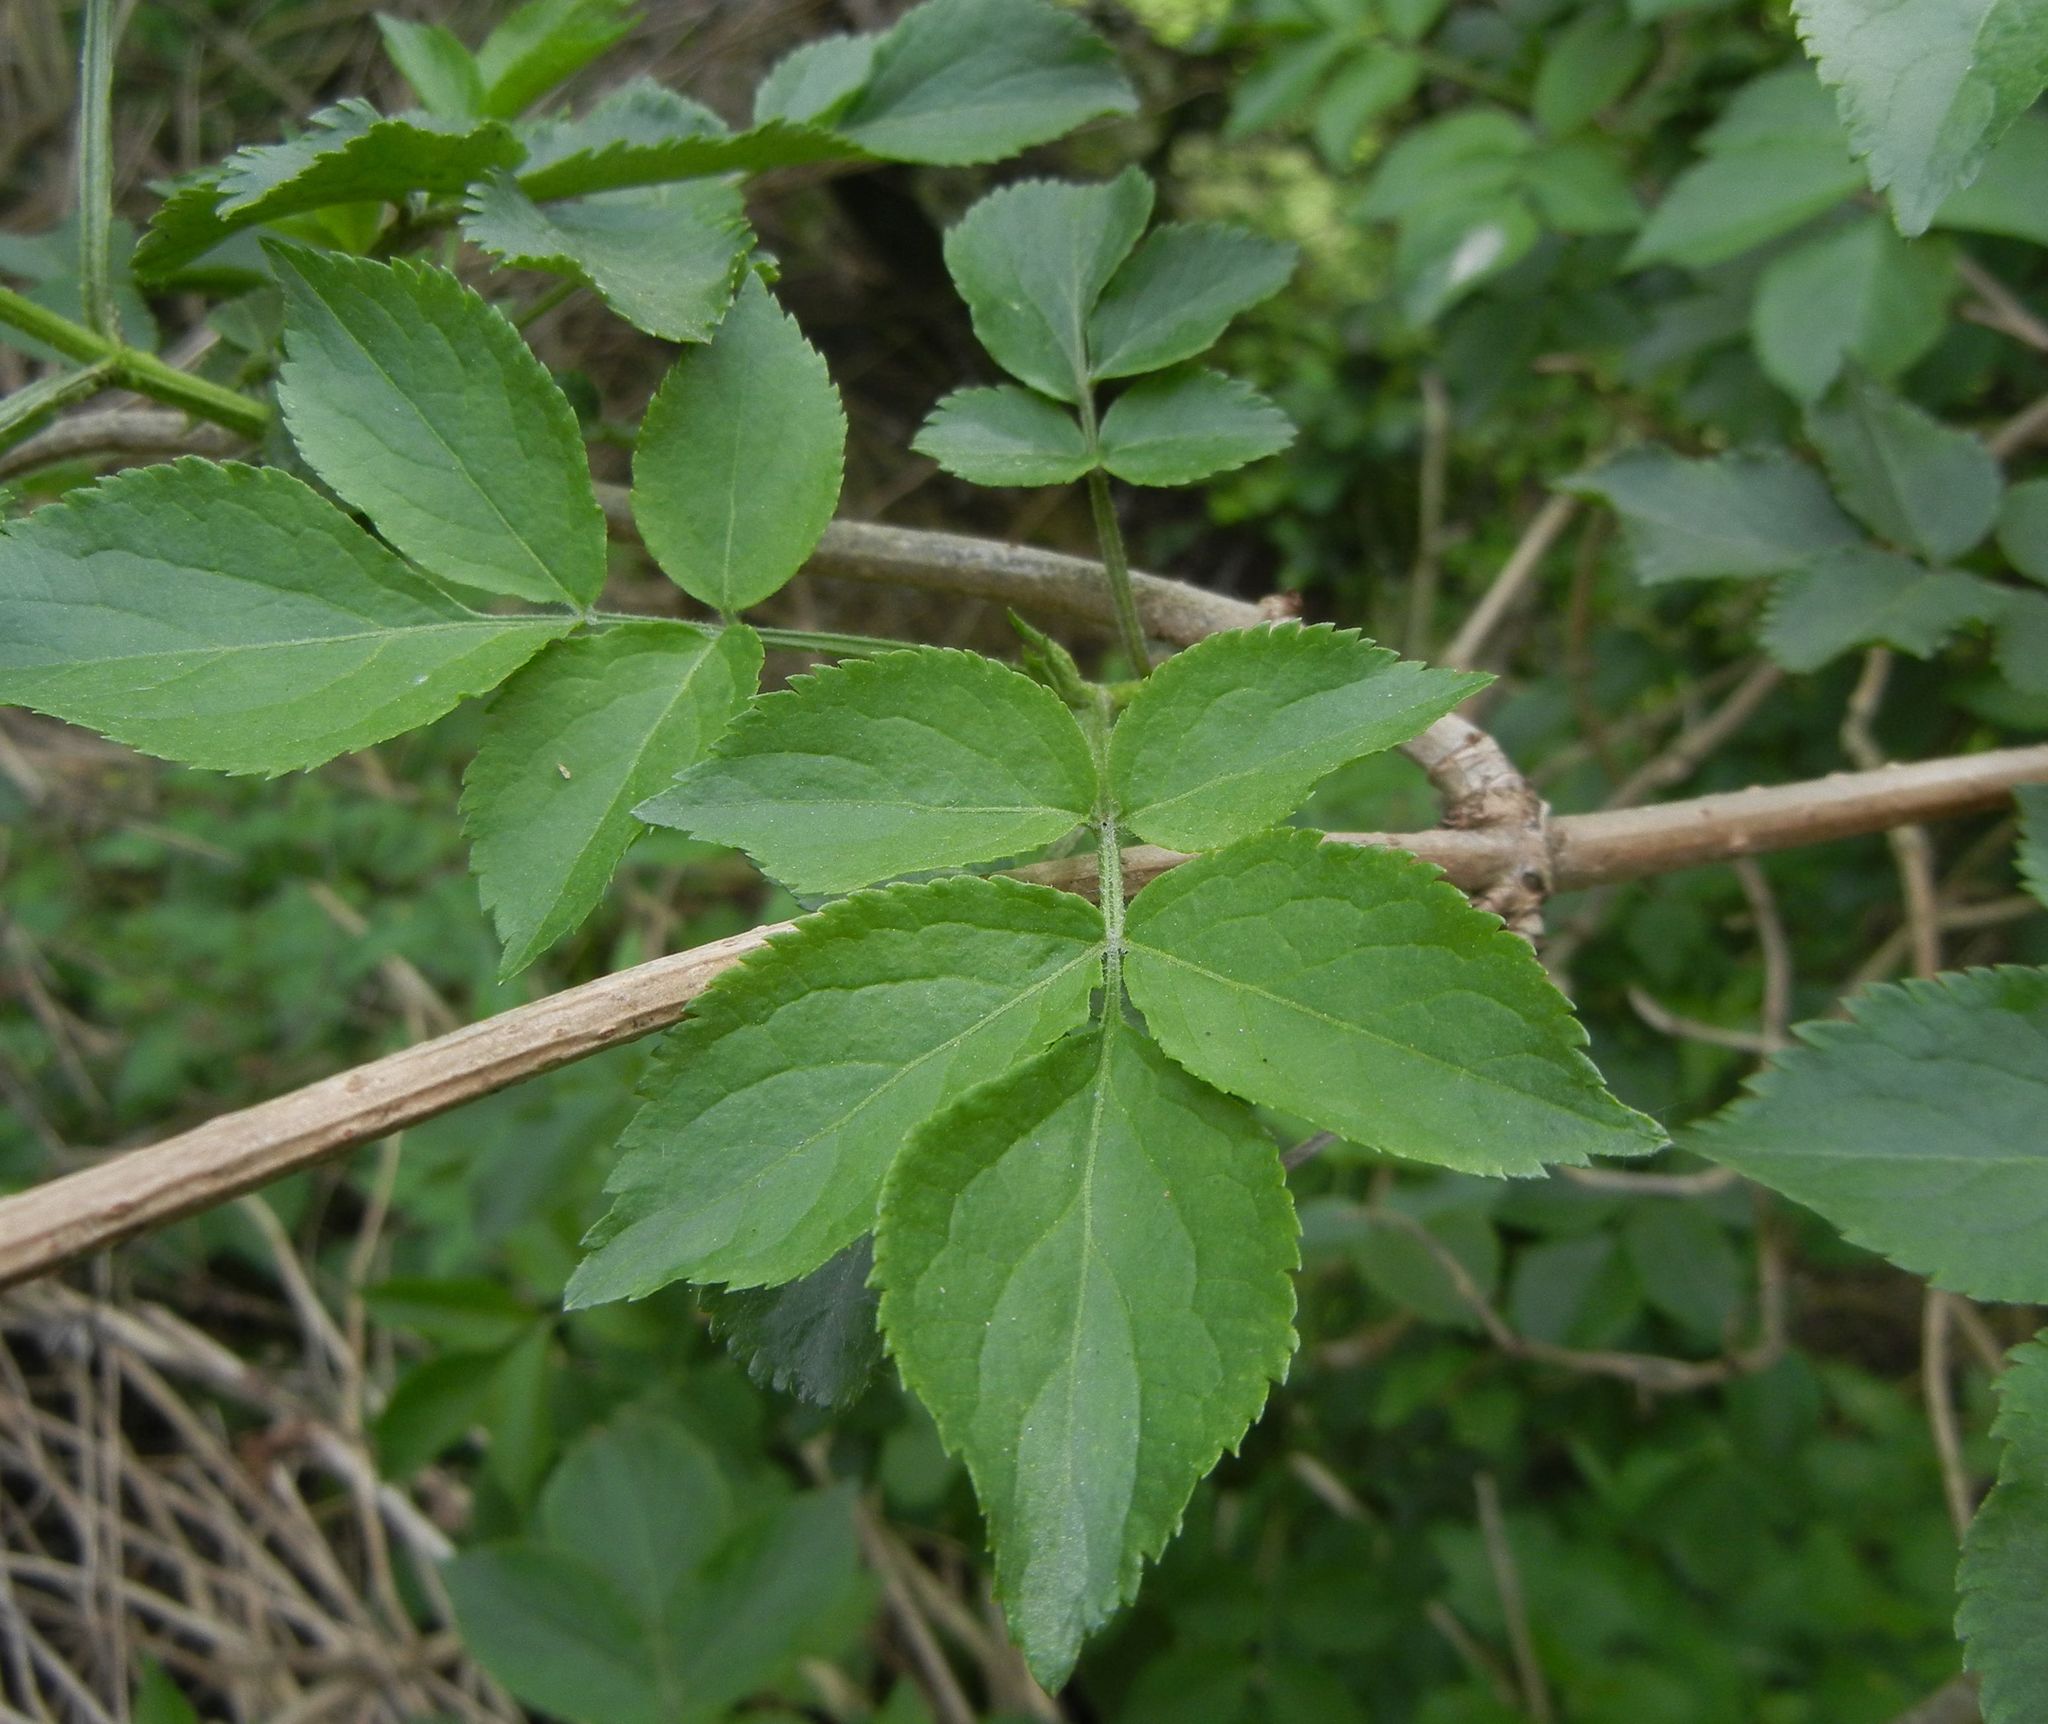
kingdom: Plantae
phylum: Tracheophyta
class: Magnoliopsida
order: Dipsacales
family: Viburnaceae
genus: Sambucus
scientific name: Sambucus nigra
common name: Elder
